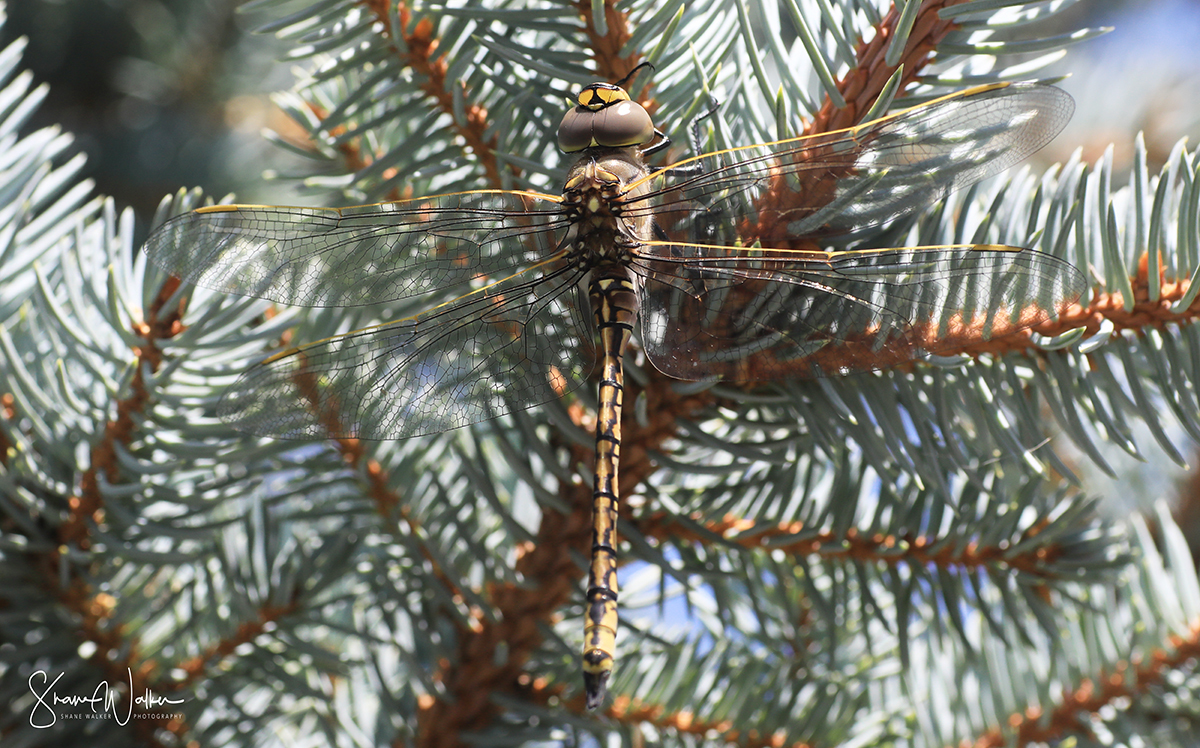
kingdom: Animalia
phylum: Arthropoda
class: Insecta
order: Odonata
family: Aeshnidae
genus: Anax
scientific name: Anax papuensis
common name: Australian emperor
